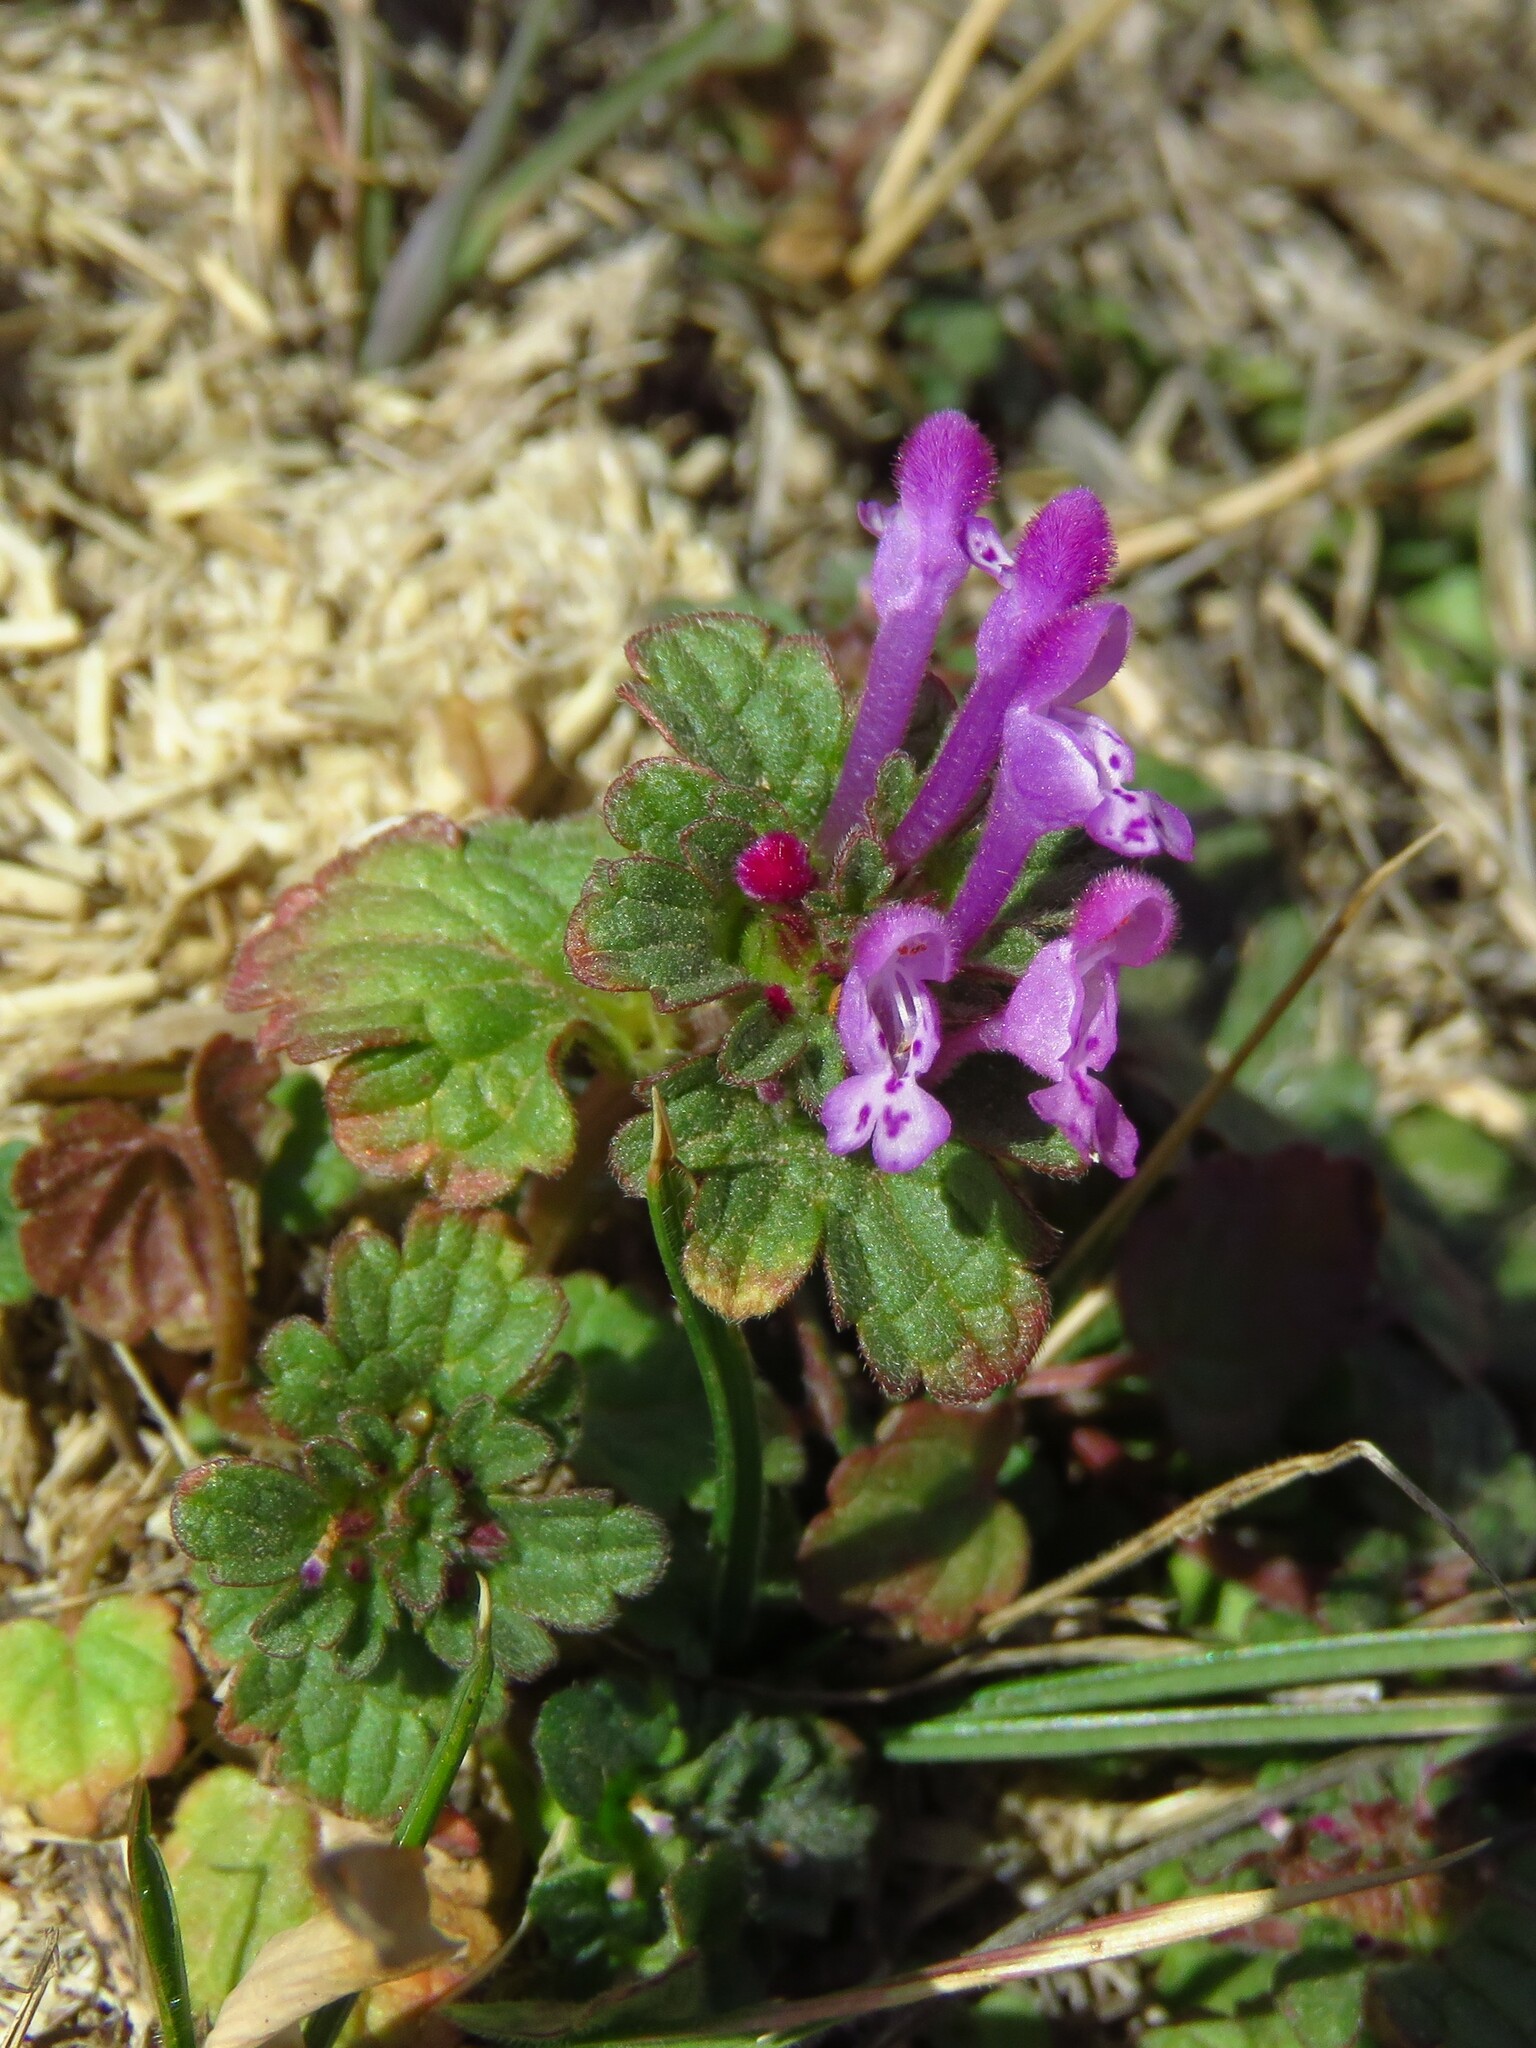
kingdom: Plantae
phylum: Tracheophyta
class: Magnoliopsida
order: Lamiales
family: Lamiaceae
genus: Lamium
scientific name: Lamium amplexicaule
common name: Henbit dead-nettle
